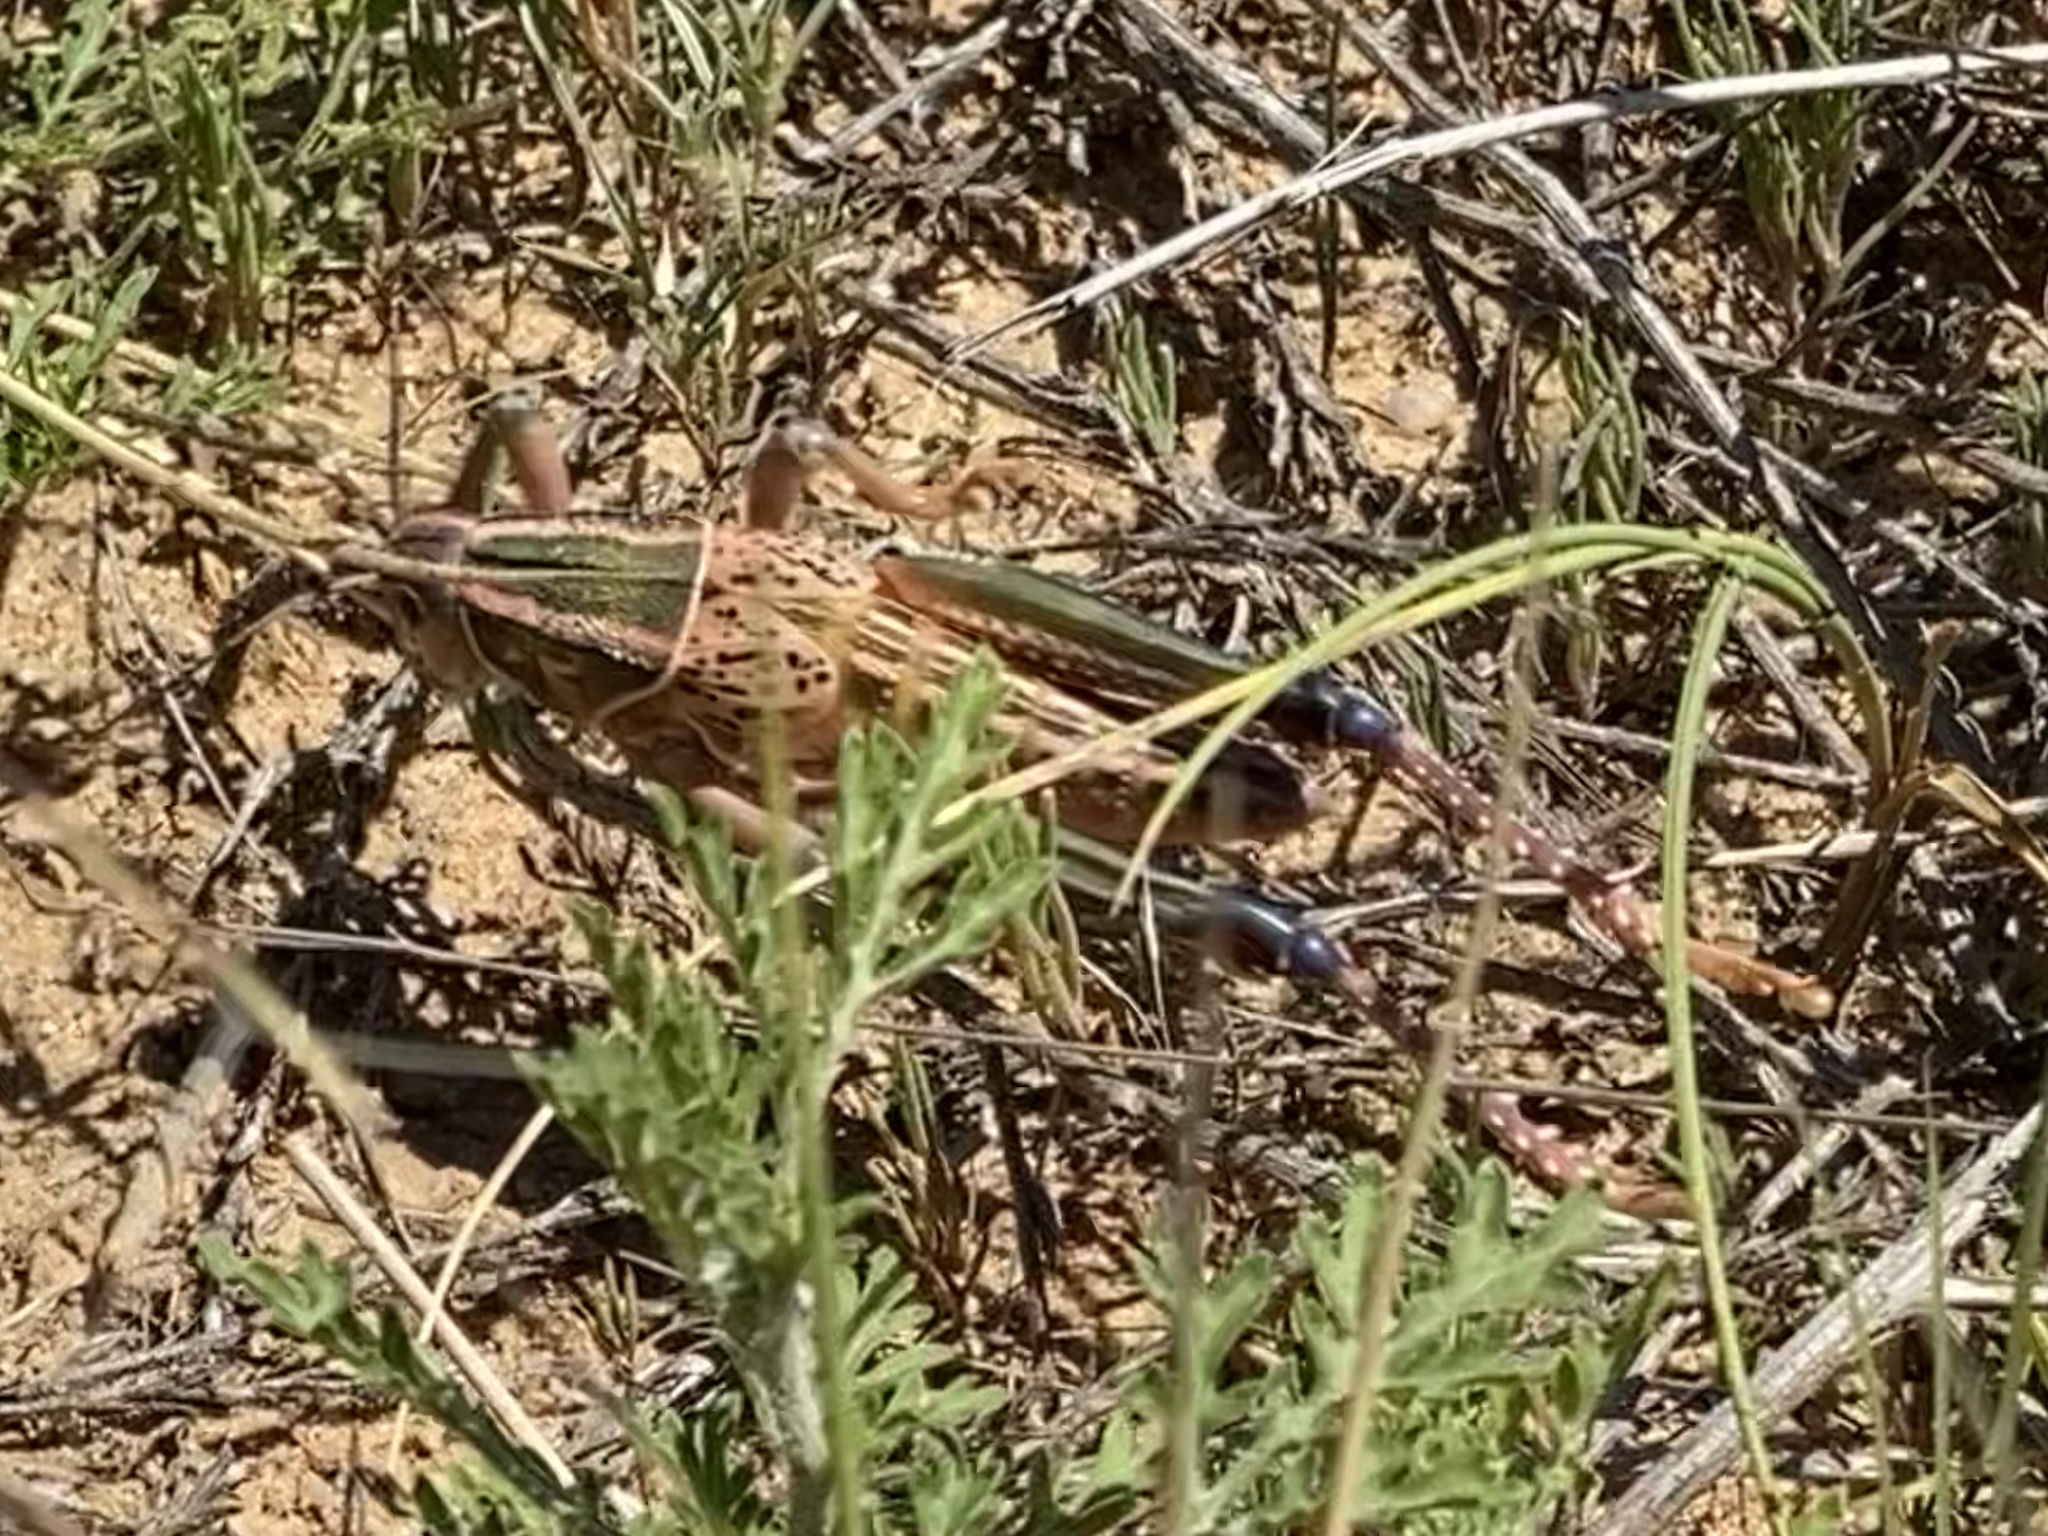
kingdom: Animalia
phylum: Arthropoda
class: Insecta
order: Orthoptera
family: Romaleidae
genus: Brachystola
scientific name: Brachystola magna
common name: Plains lubber grasshopper
